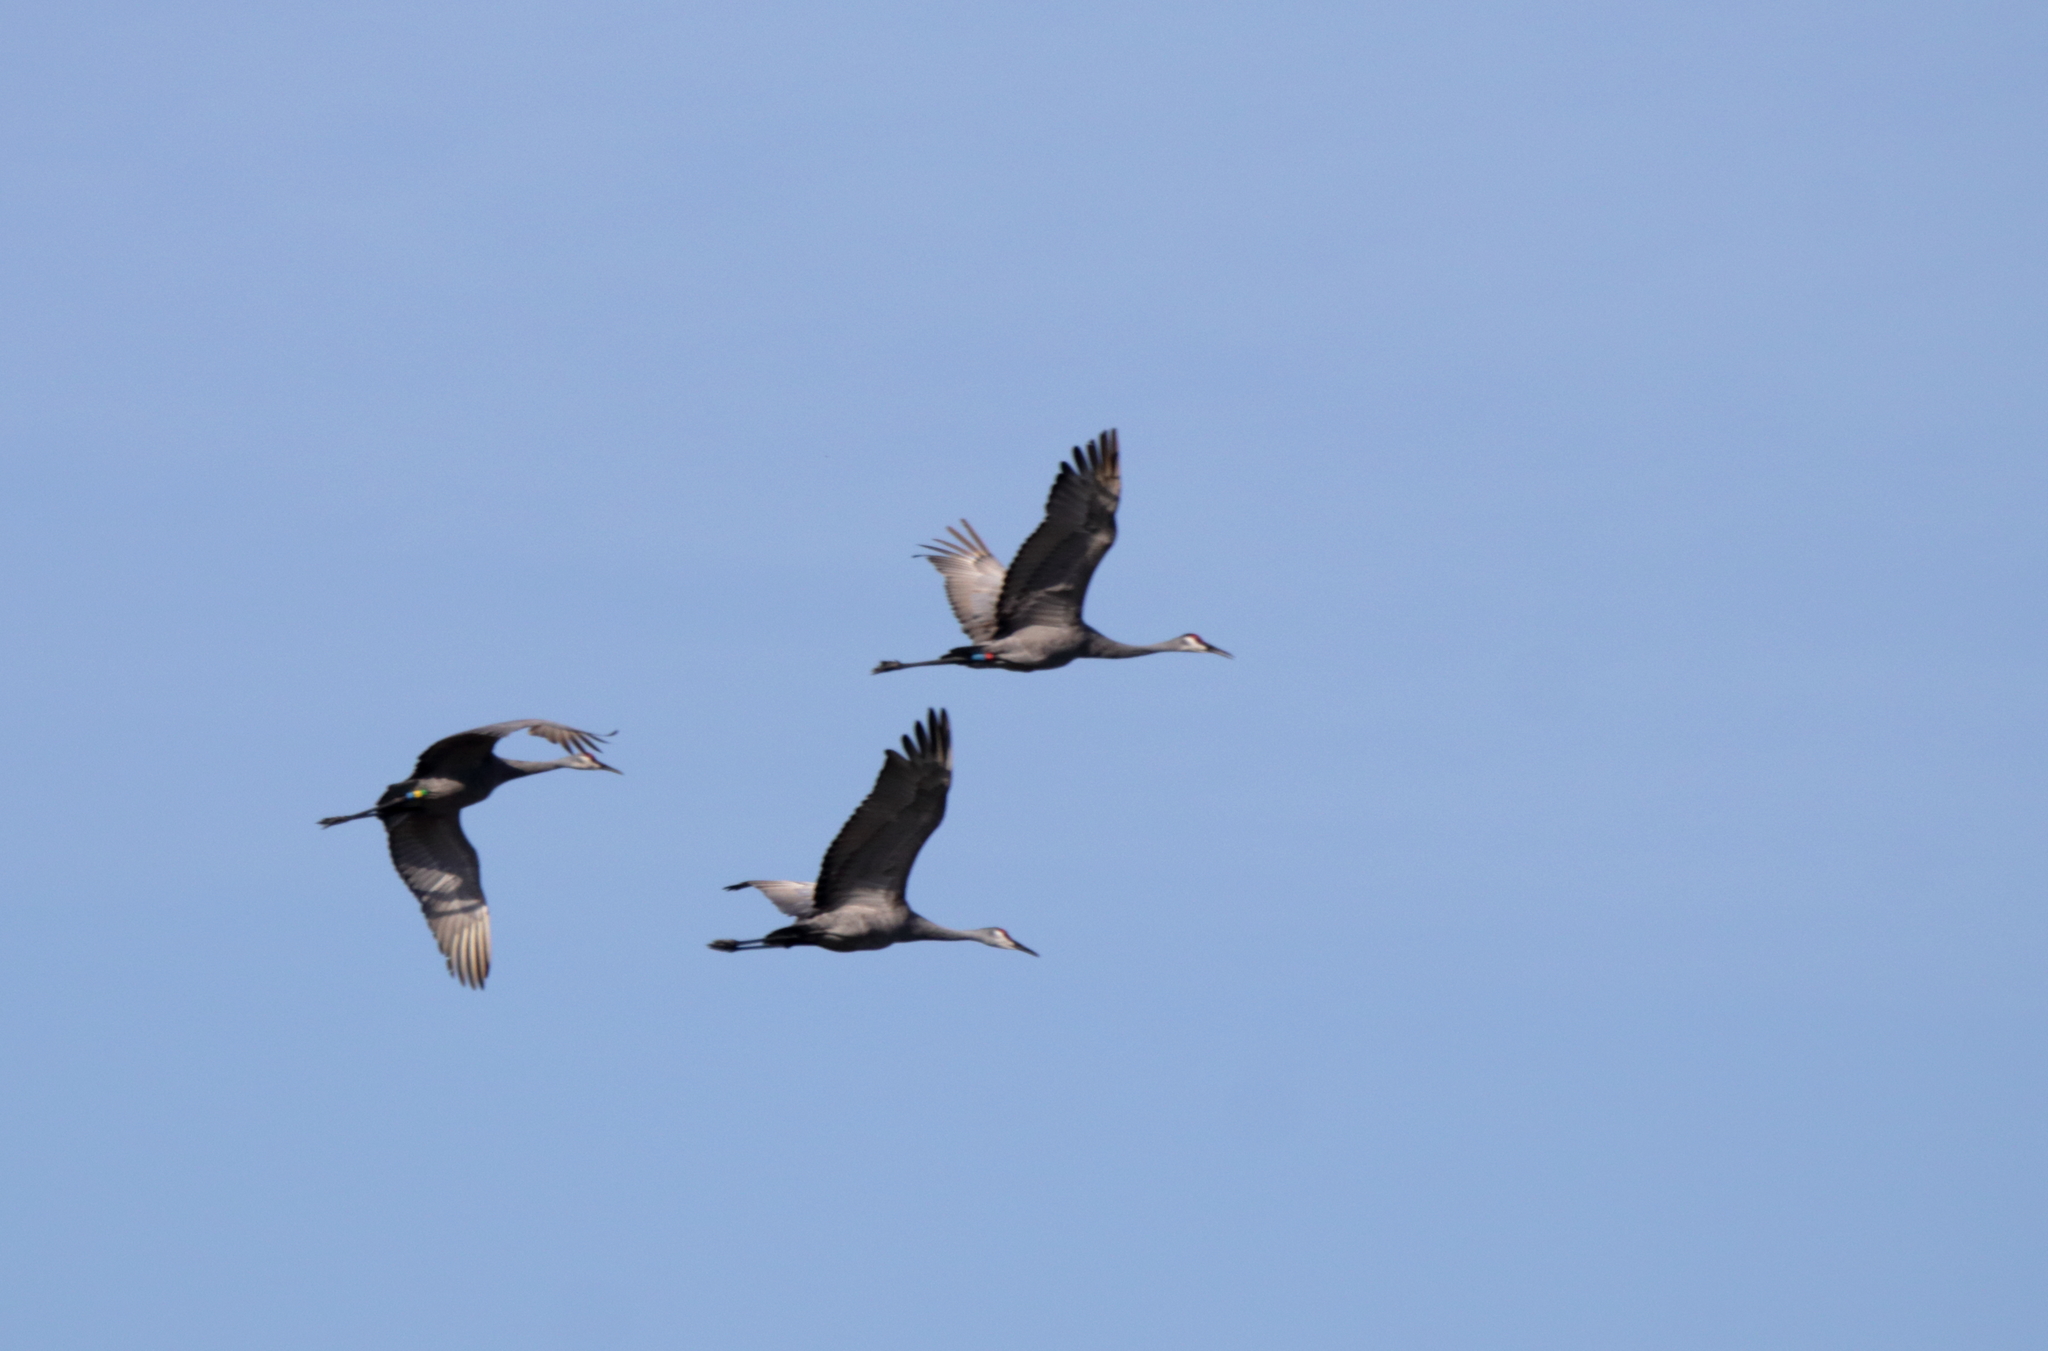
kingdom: Animalia
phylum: Chordata
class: Aves
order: Gruiformes
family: Gruidae
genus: Grus
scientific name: Grus canadensis
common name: Sandhill crane
